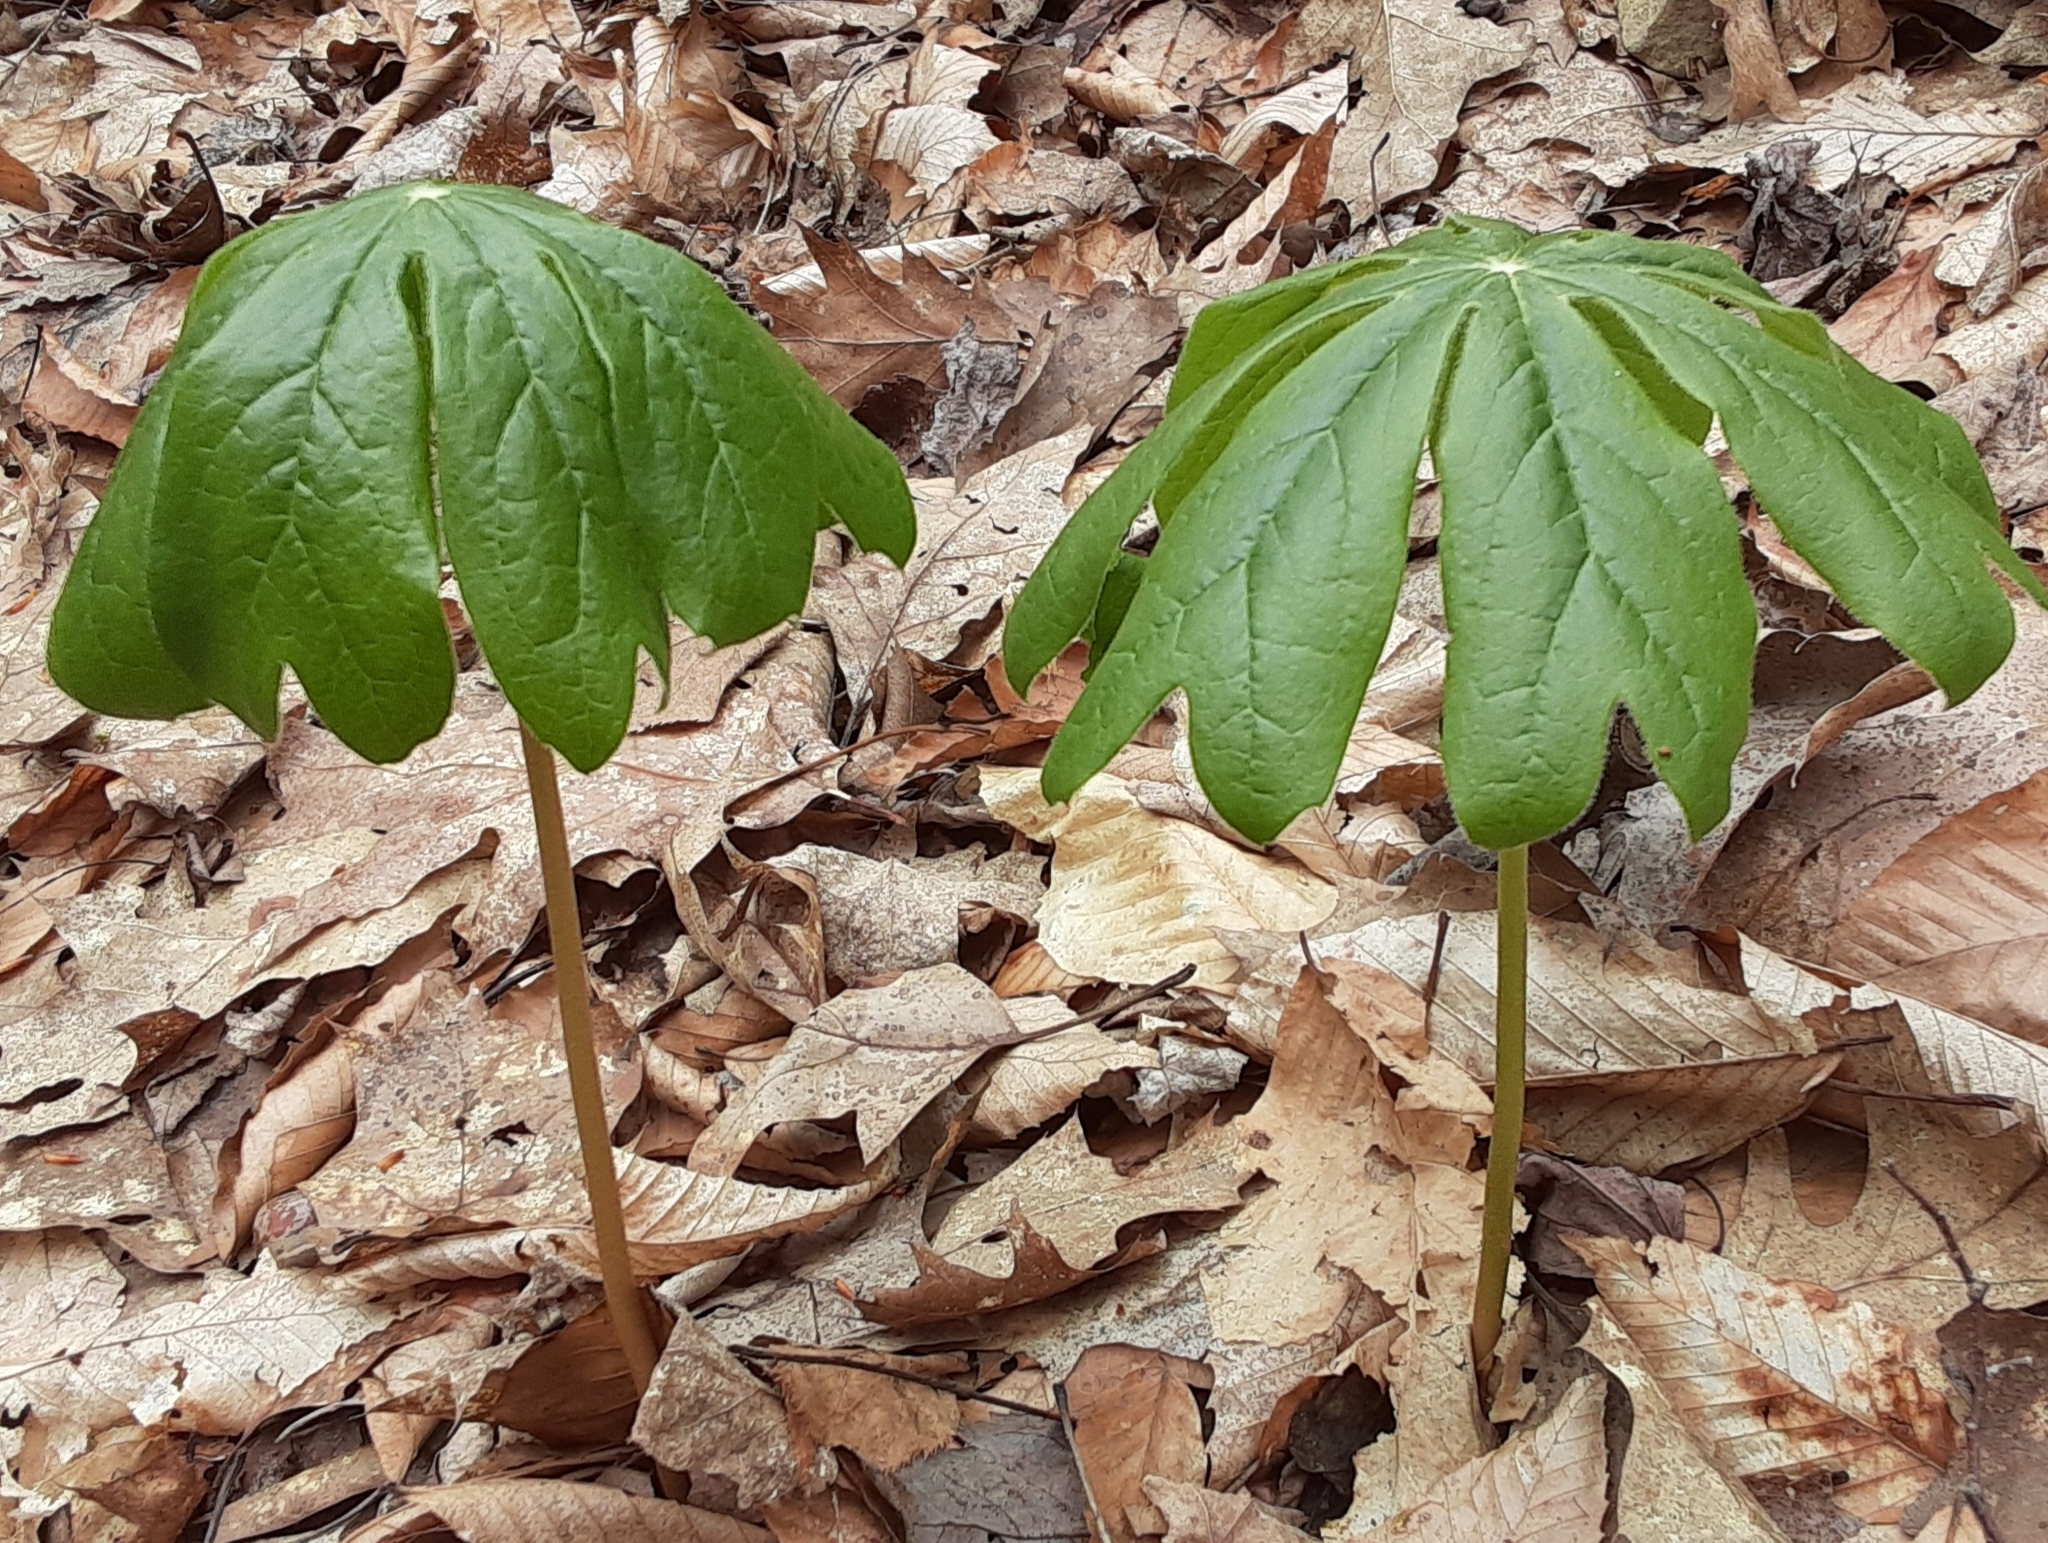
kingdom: Plantae
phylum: Tracheophyta
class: Magnoliopsida
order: Ranunculales
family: Berberidaceae
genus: Podophyllum
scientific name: Podophyllum peltatum
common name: Wild mandrake
